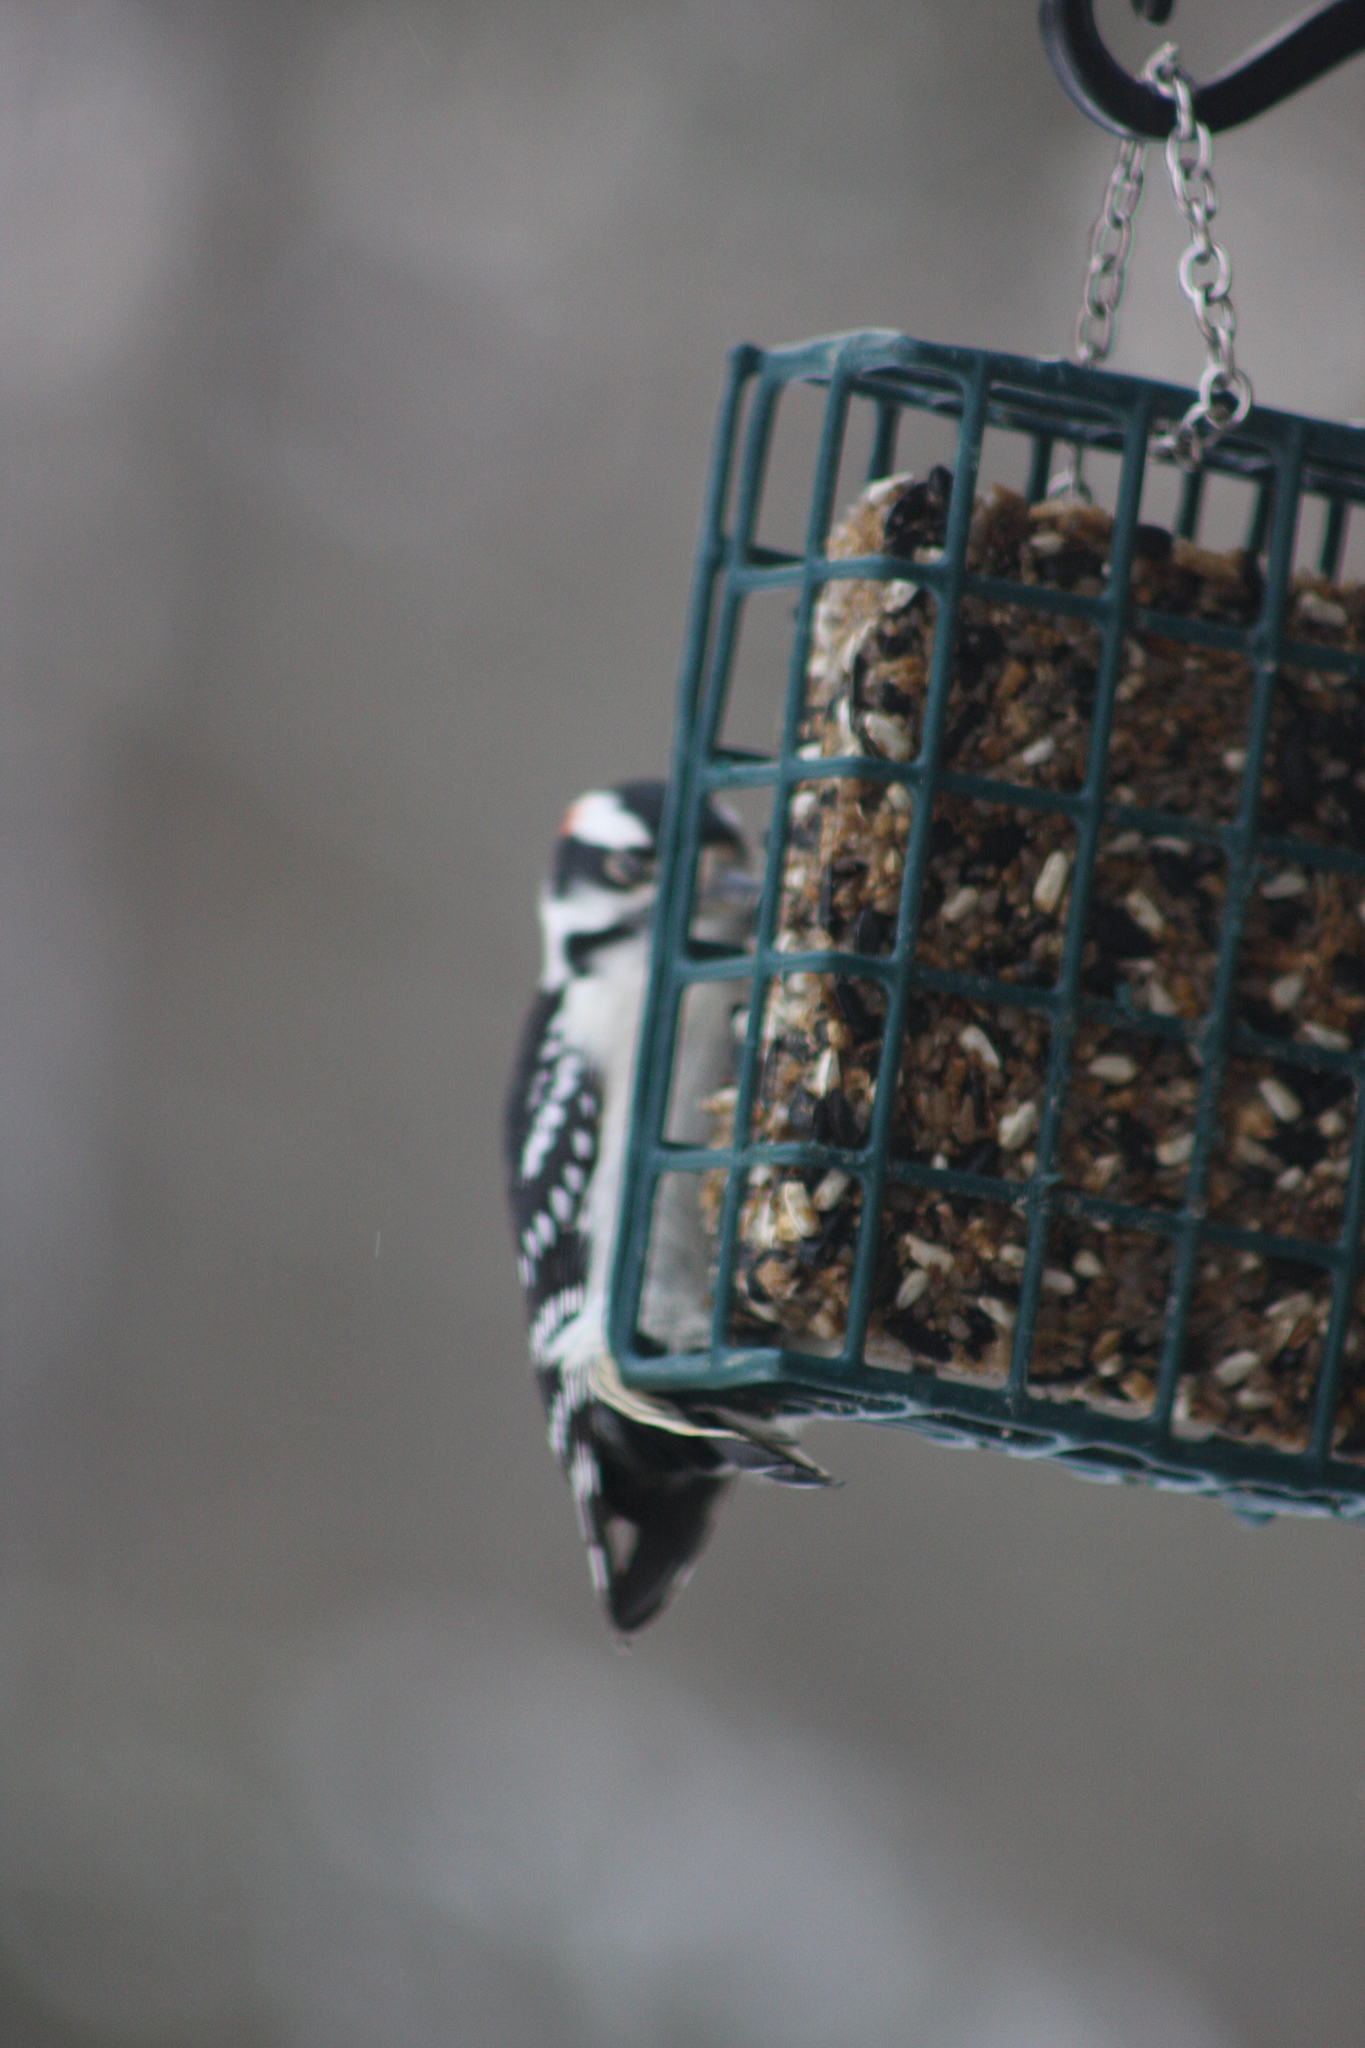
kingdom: Animalia
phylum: Chordata
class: Aves
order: Piciformes
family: Picidae
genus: Dryobates
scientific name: Dryobates pubescens
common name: Downy woodpecker
